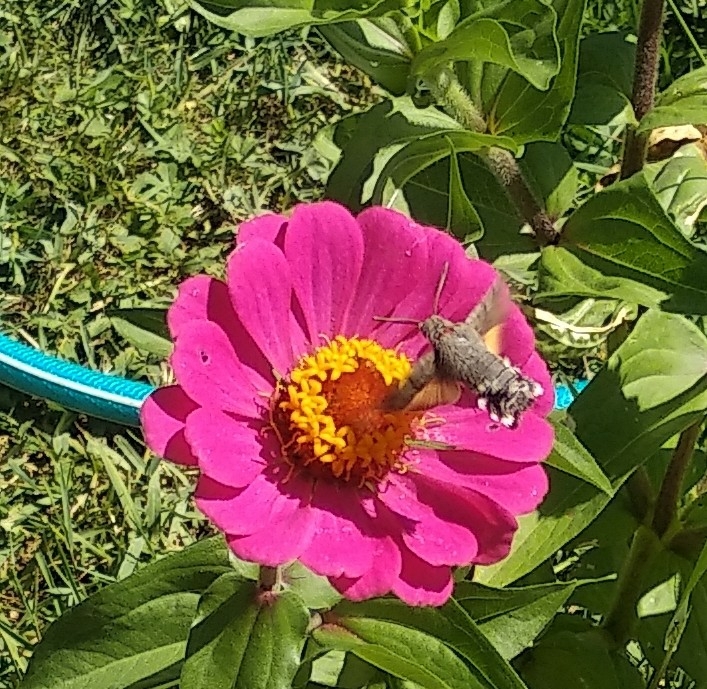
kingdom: Animalia
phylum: Arthropoda
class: Insecta
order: Lepidoptera
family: Sphingidae
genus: Macroglossum
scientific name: Macroglossum stellatarum
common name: Humming-bird hawk-moth
